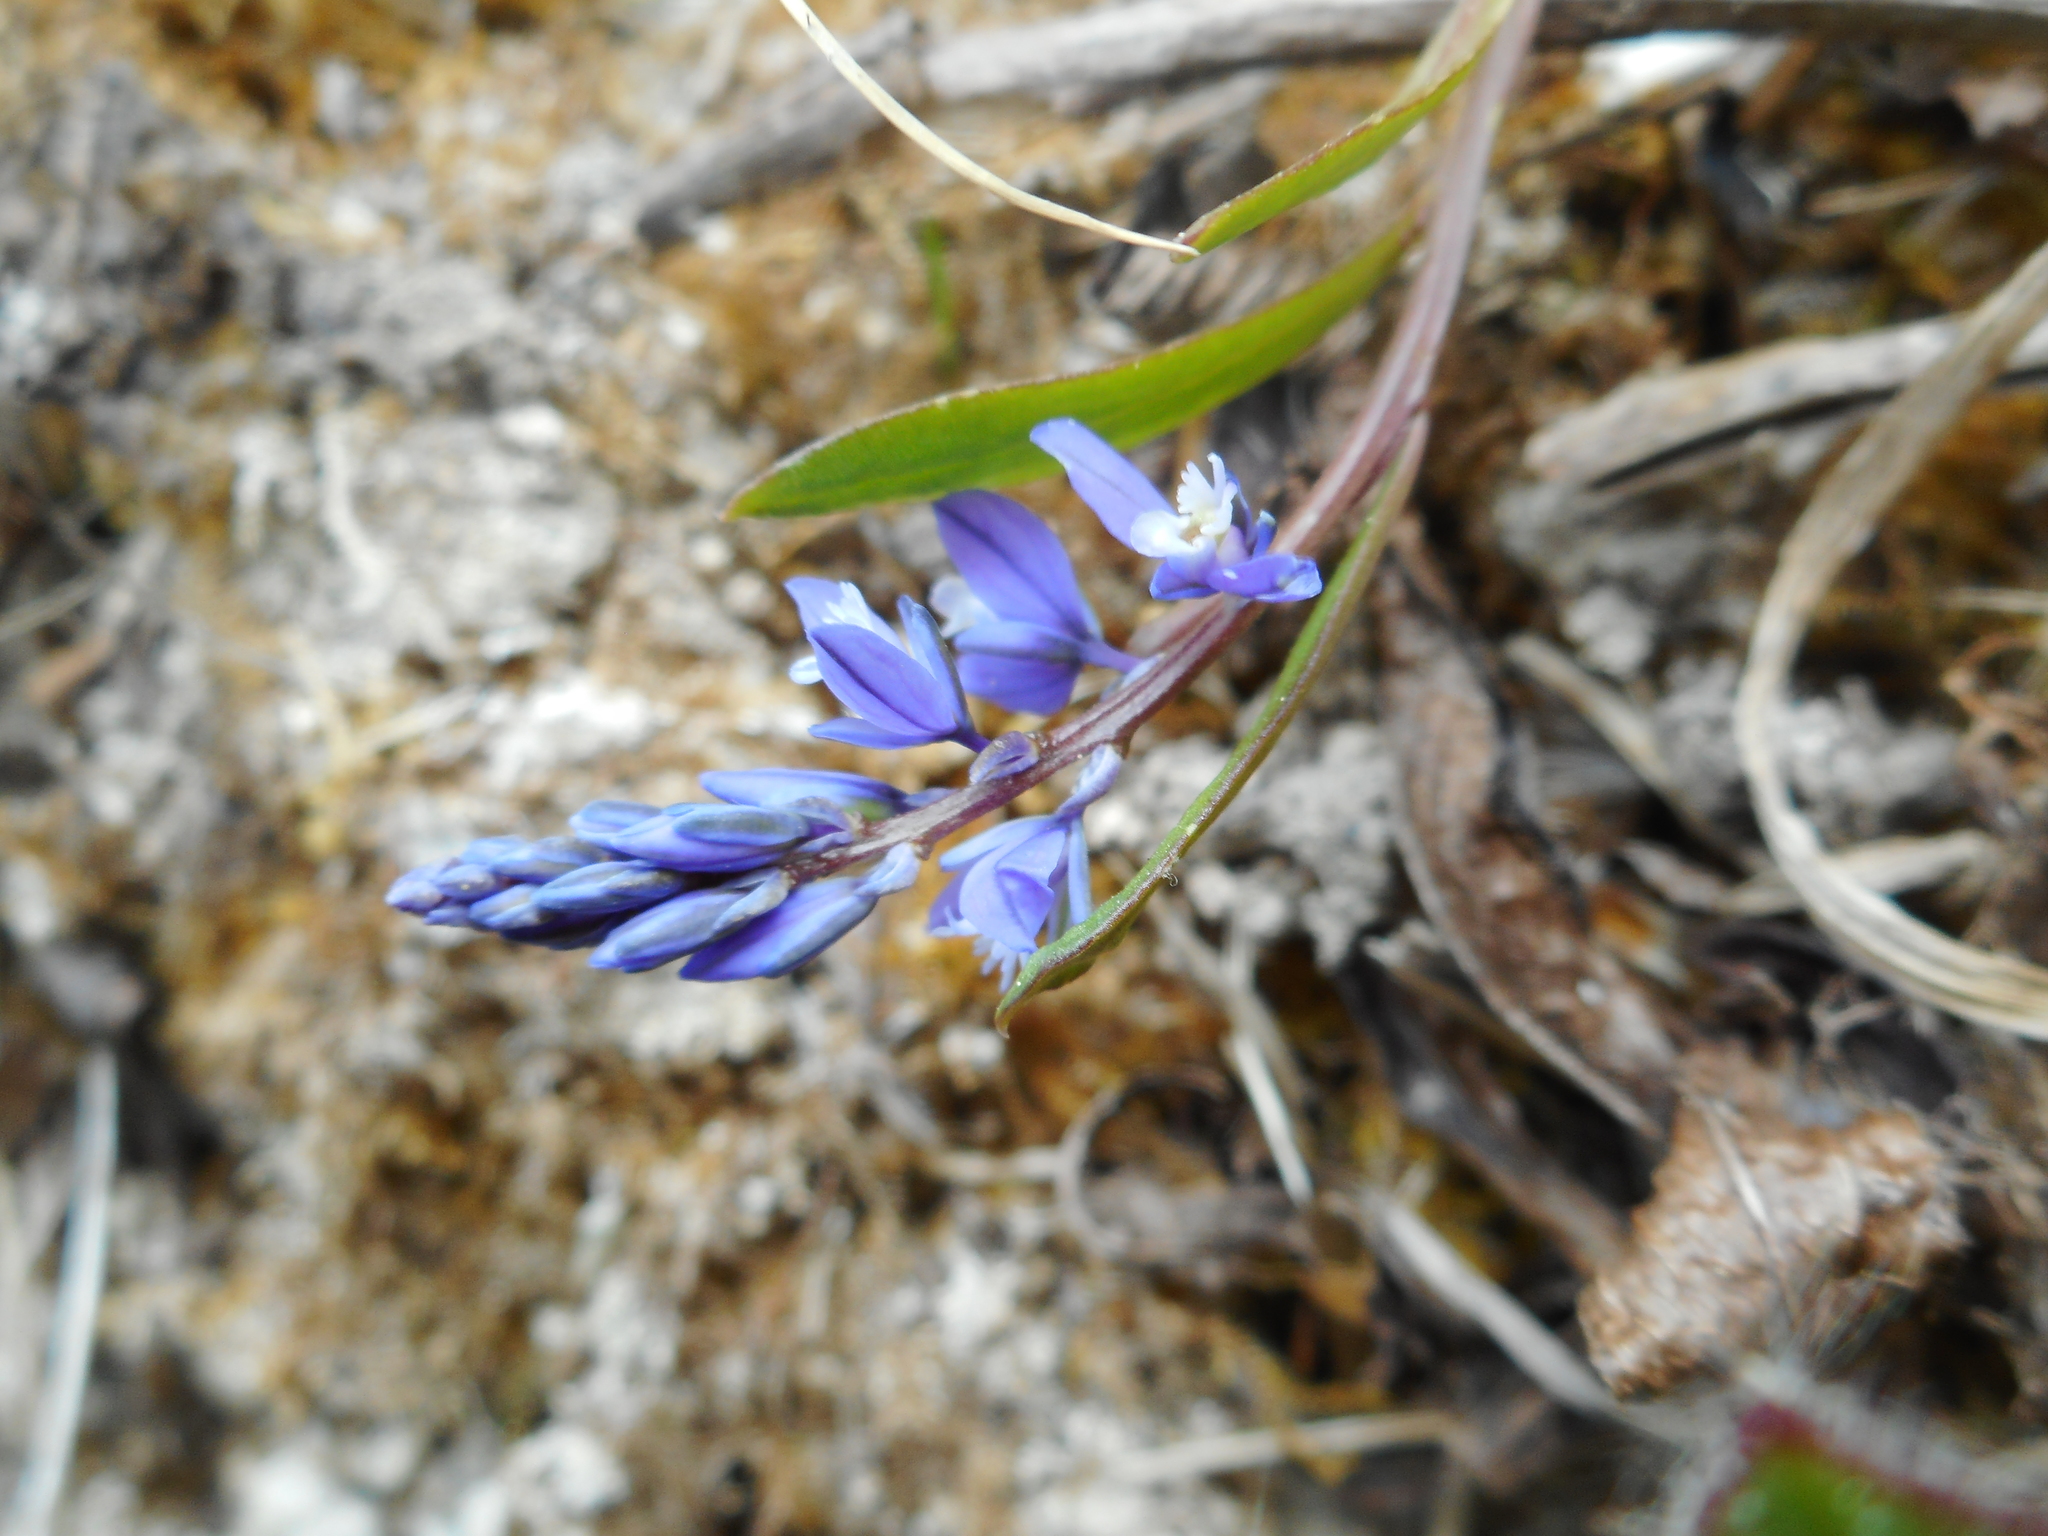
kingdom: Plantae
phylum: Tracheophyta
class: Magnoliopsida
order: Fabales
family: Polygalaceae
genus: Polygala
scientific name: Polygala amarella
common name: Dwarf milkwort
